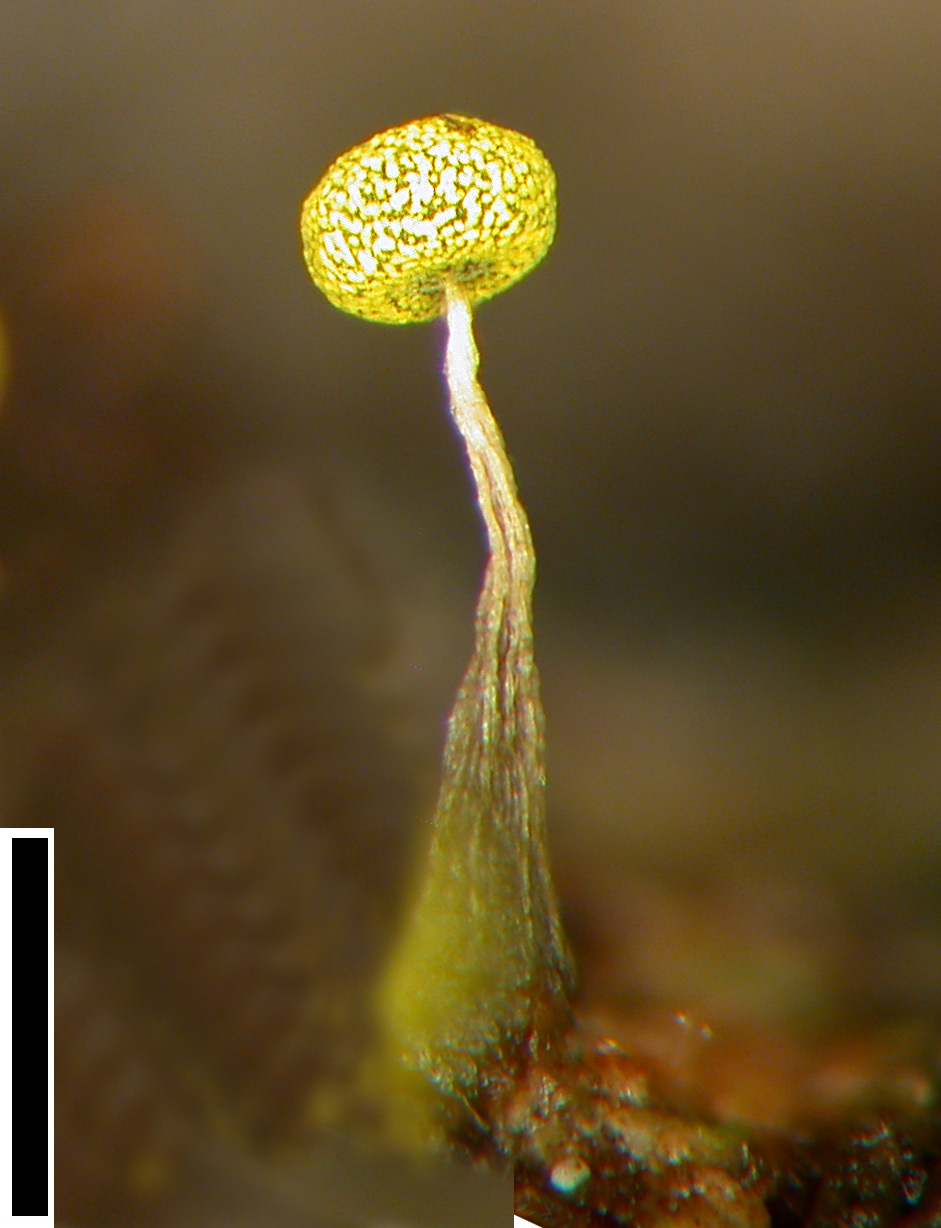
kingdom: Protozoa
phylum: Mycetozoa
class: Myxomycetes
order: Physarales
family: Physaraceae
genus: Physarum
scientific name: Physarum viride
